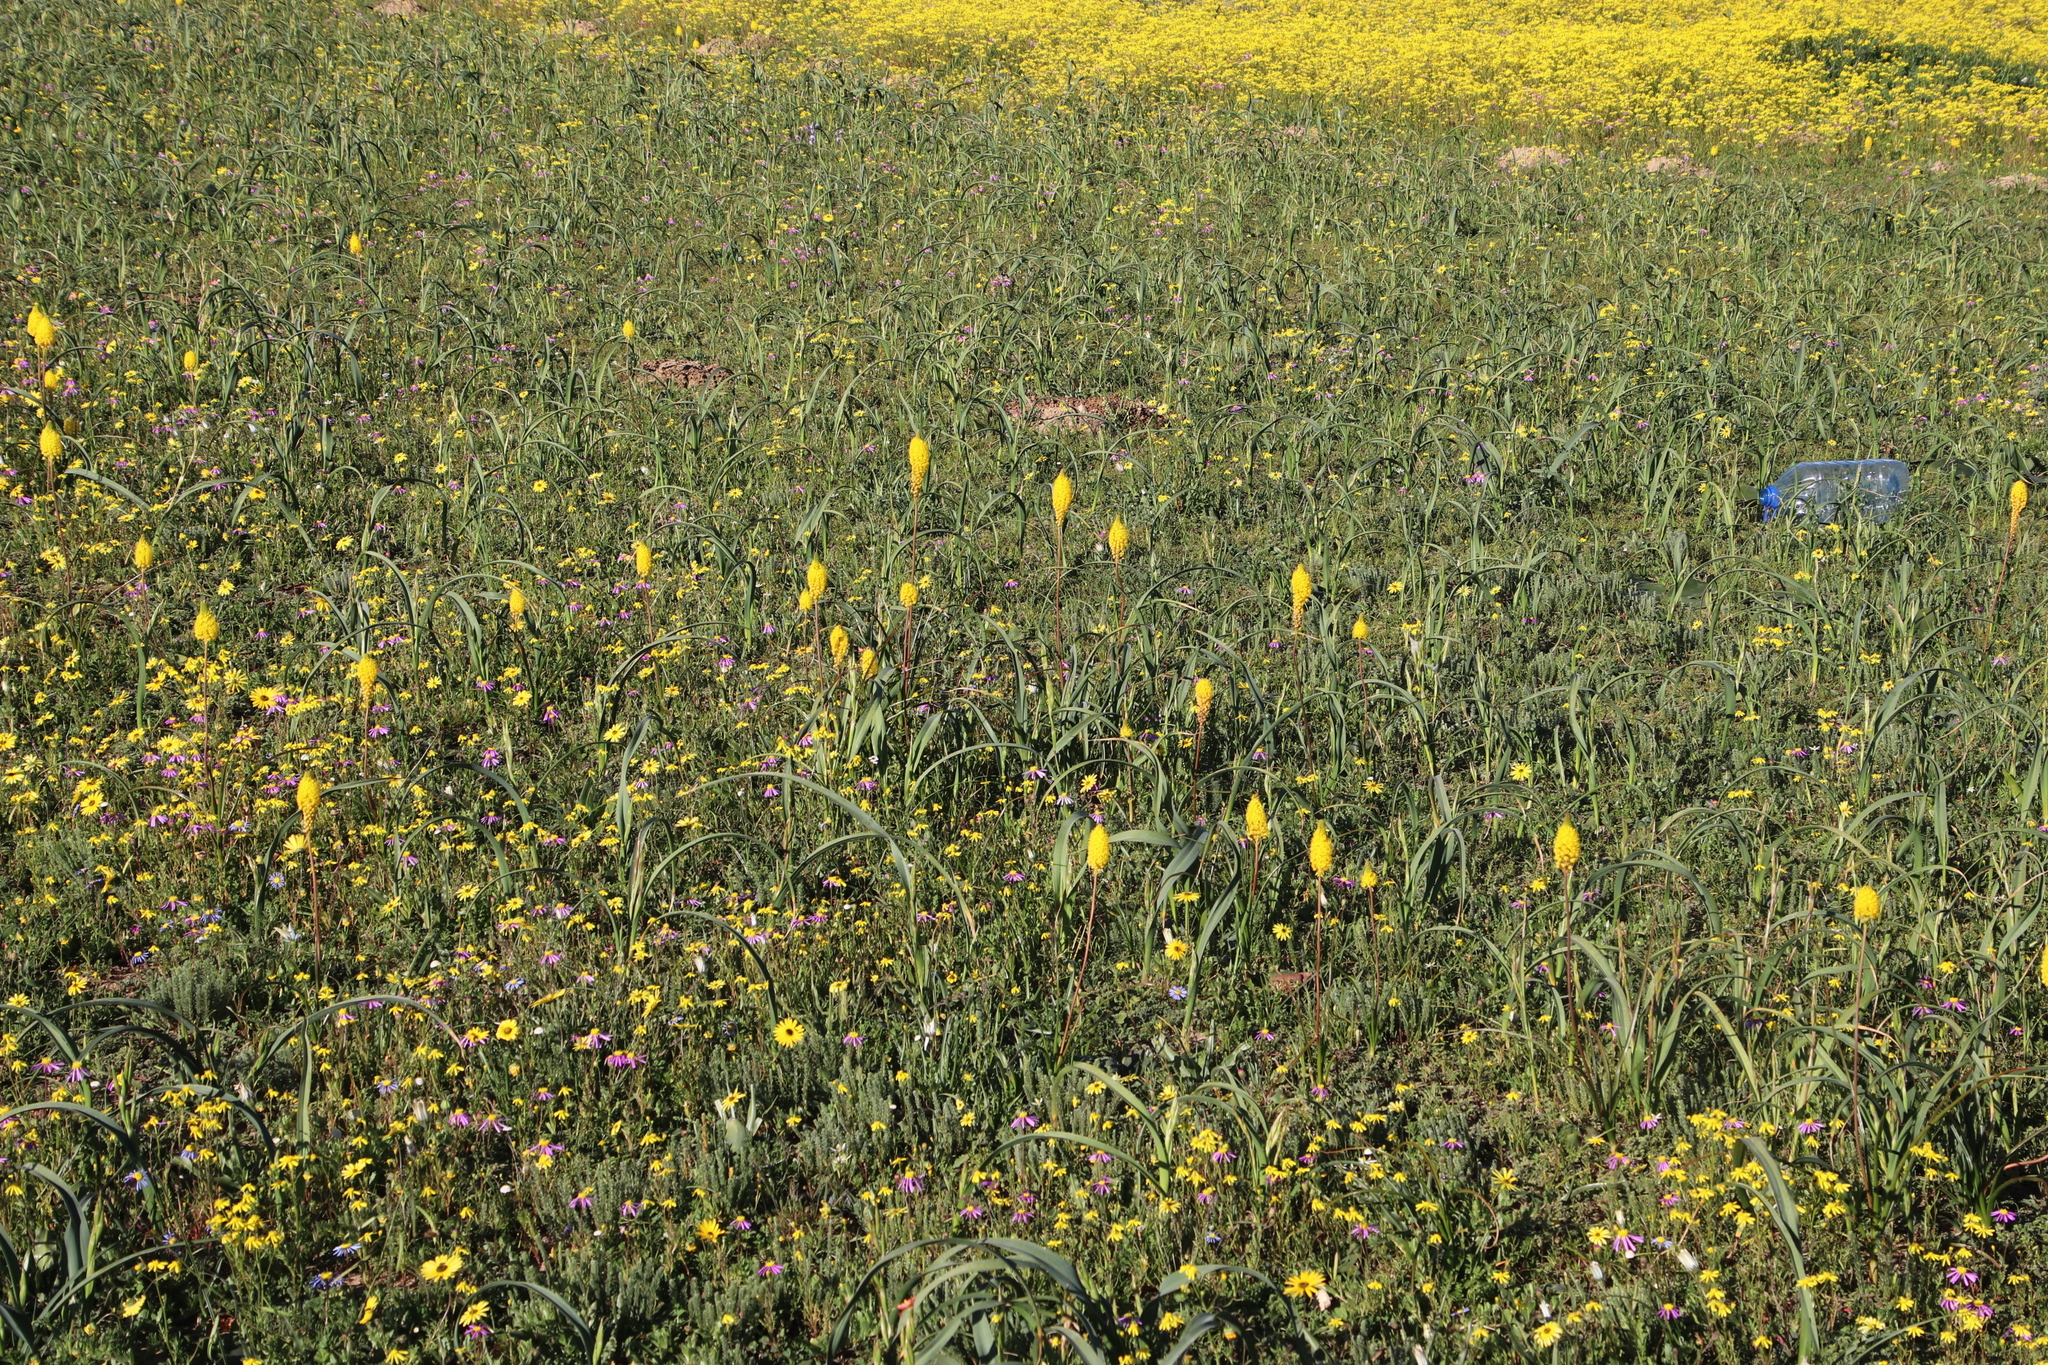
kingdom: Plantae
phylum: Tracheophyta
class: Liliopsida
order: Asparagales
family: Asphodelaceae
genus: Bulbinella
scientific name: Bulbinella nutans
